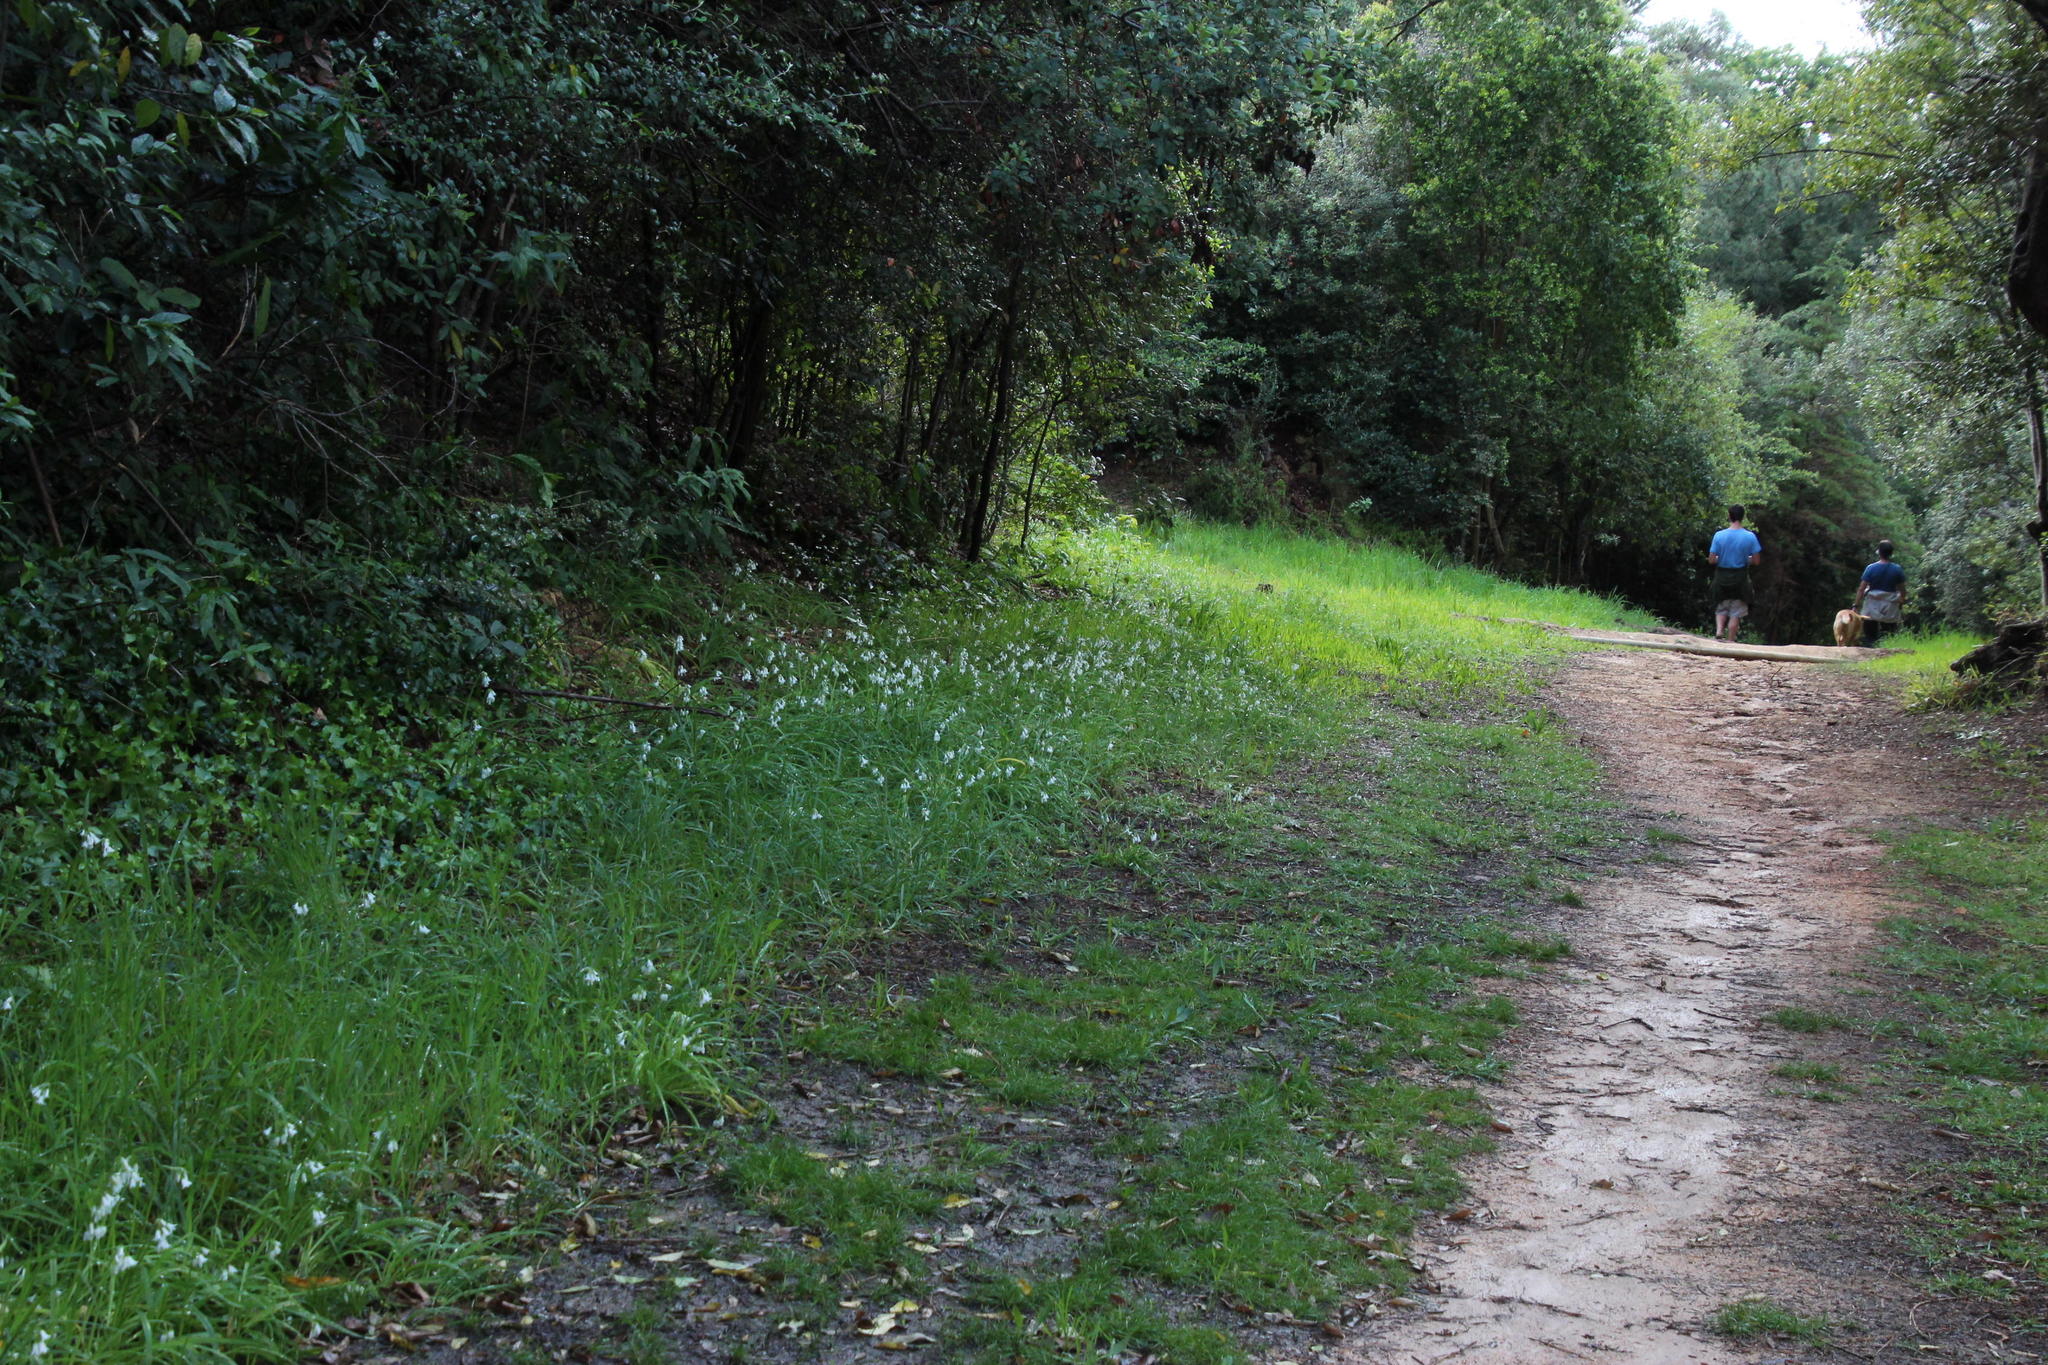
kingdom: Plantae
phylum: Tracheophyta
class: Liliopsida
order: Asparagales
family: Amaryllidaceae
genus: Allium
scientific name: Allium triquetrum
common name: Three-cornered garlic
